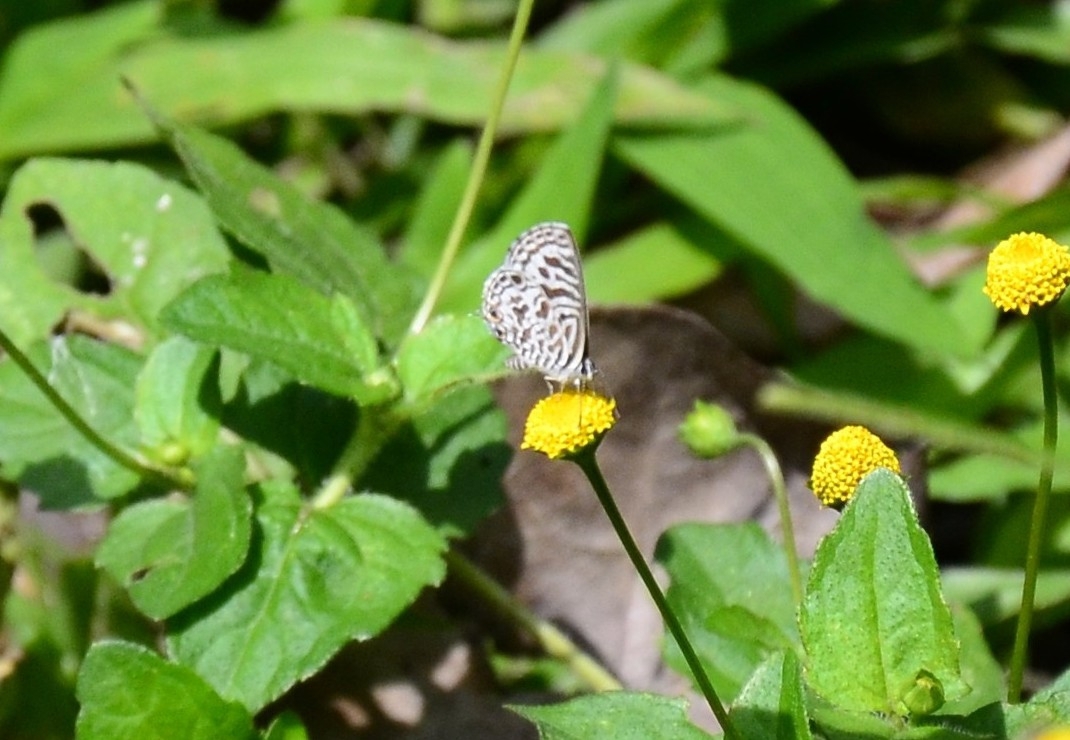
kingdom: Animalia
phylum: Arthropoda
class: Insecta
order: Lepidoptera
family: Lycaenidae
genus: Leptotes
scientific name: Leptotes plinius
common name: Zebra blue
